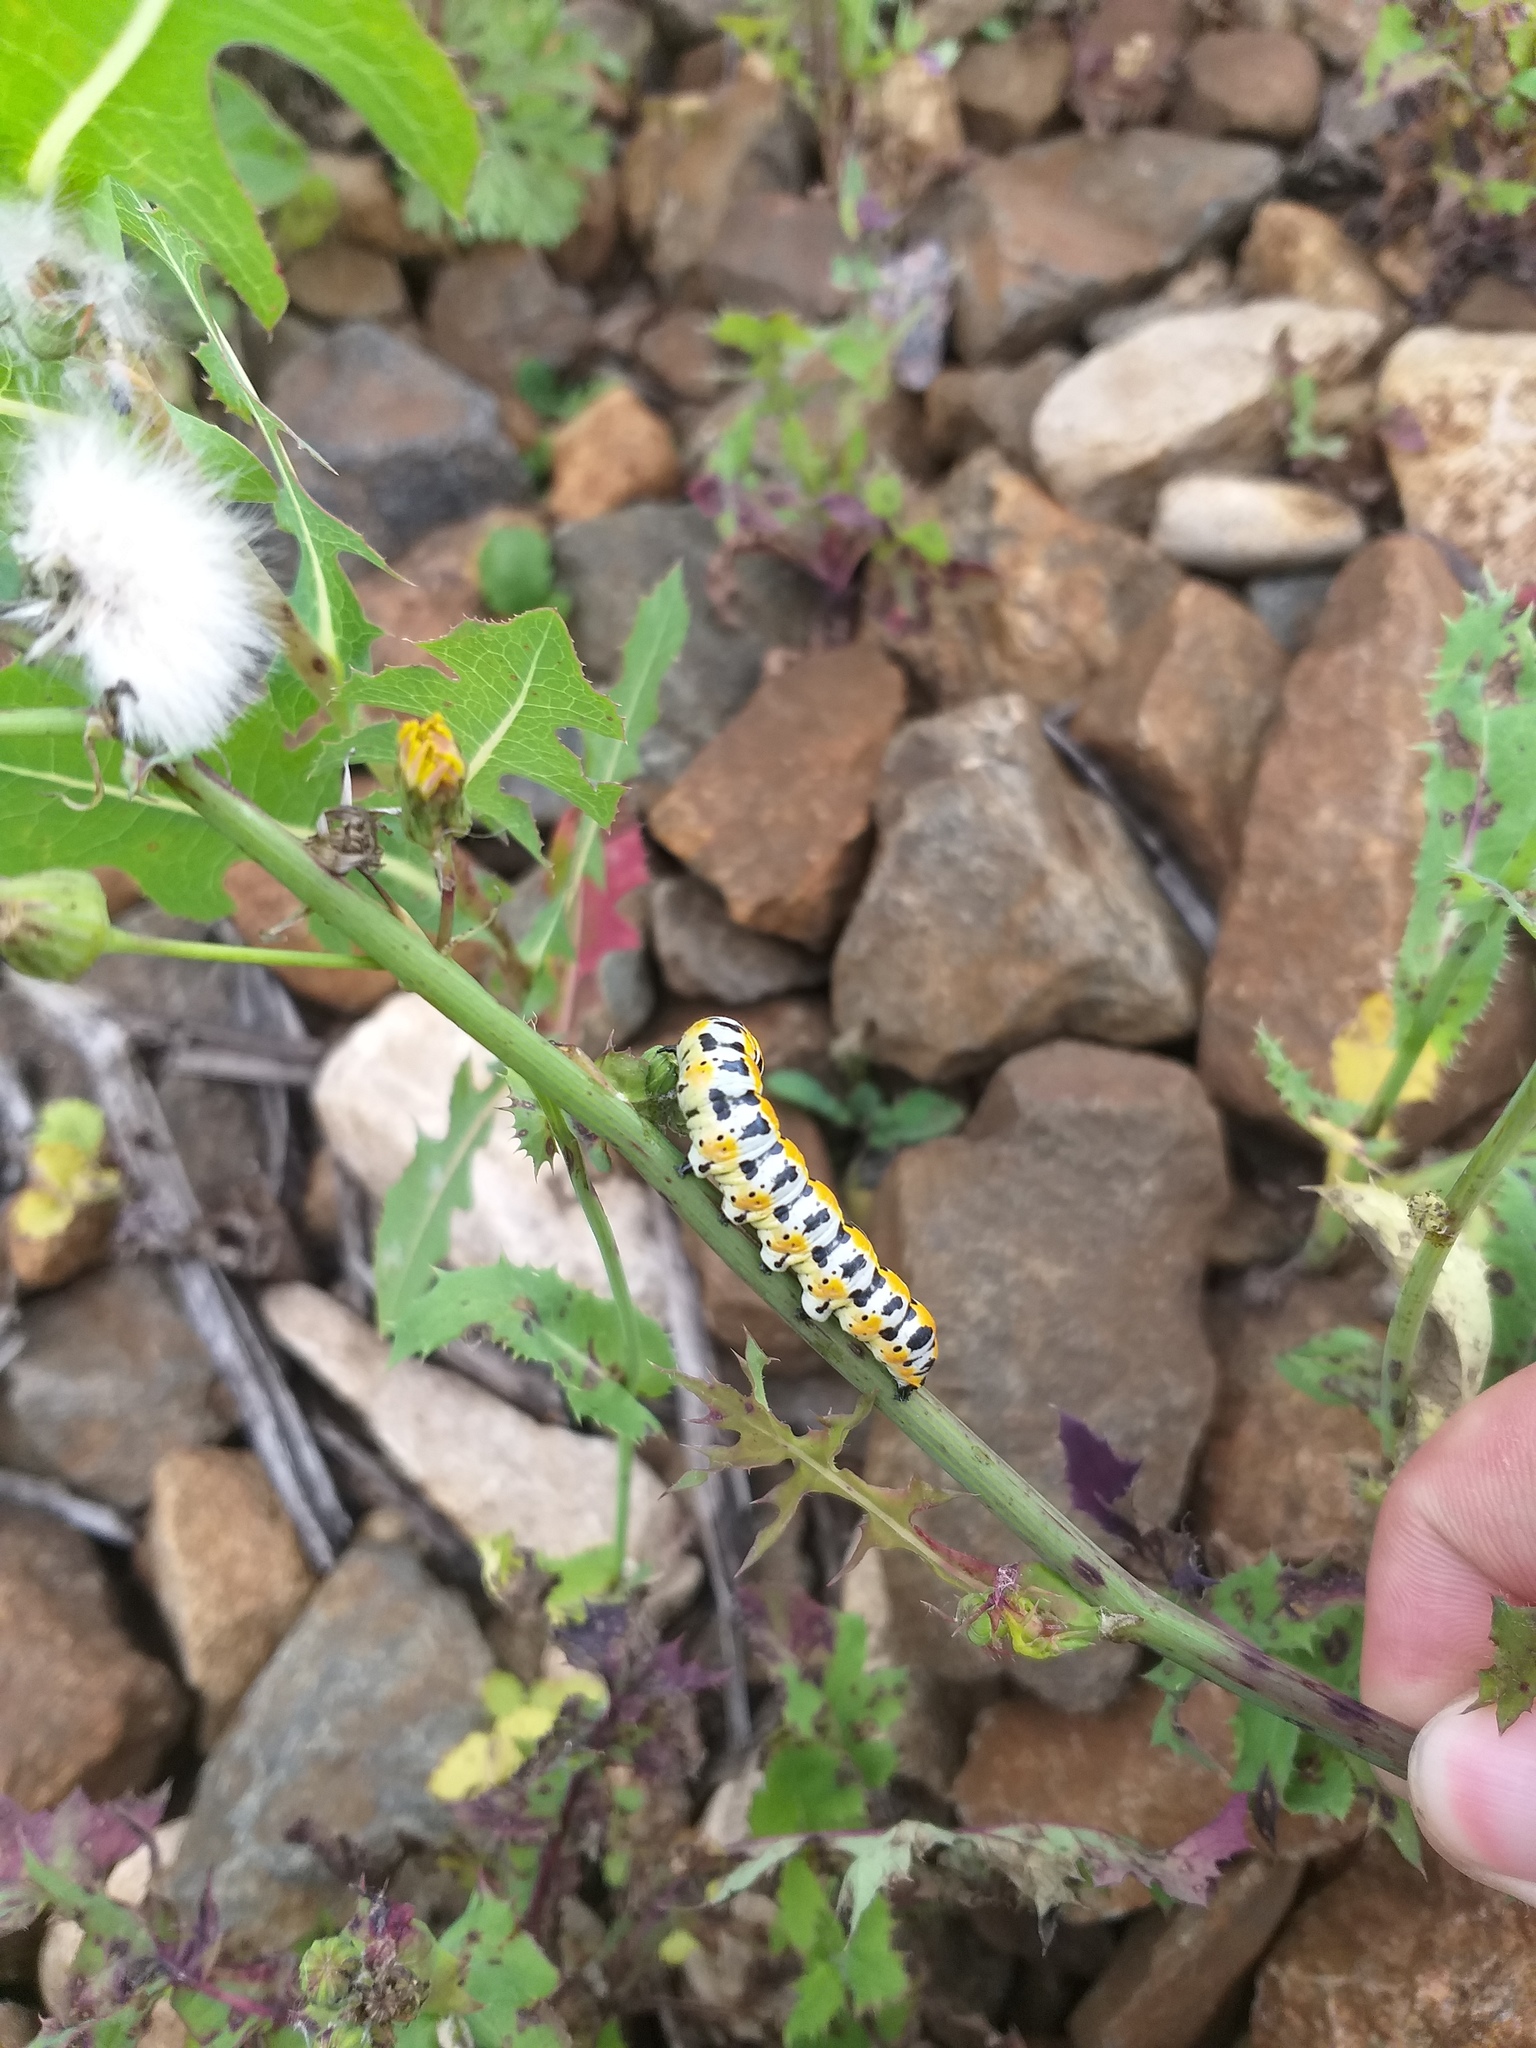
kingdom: Animalia
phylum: Arthropoda
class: Insecta
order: Lepidoptera
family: Noctuidae
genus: Cucullia
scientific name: Cucullia pustulata
